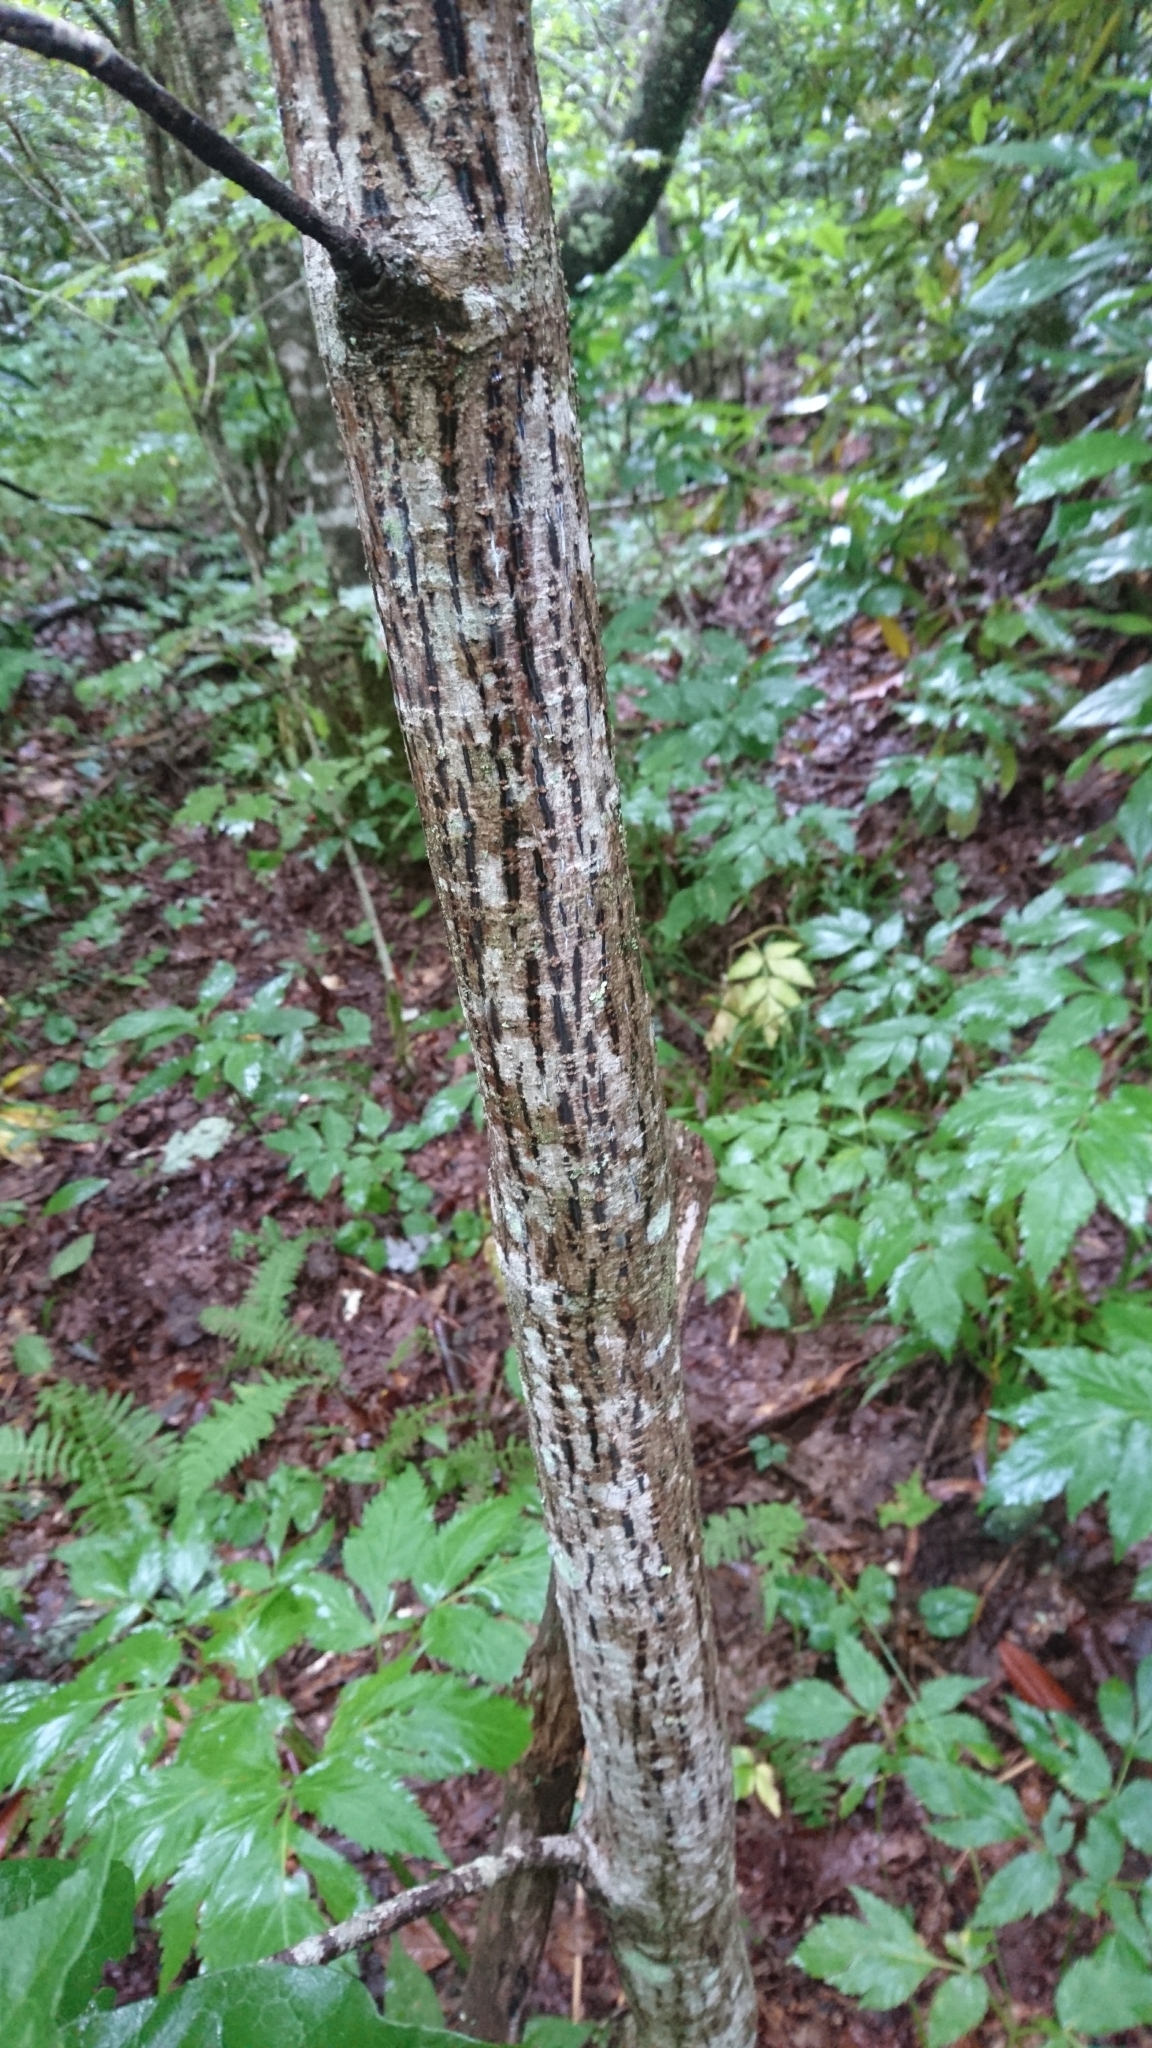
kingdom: Plantae
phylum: Tracheophyta
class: Magnoliopsida
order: Sapindales
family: Sapindaceae
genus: Acer
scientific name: Acer pensylvanicum
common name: Moosewood
